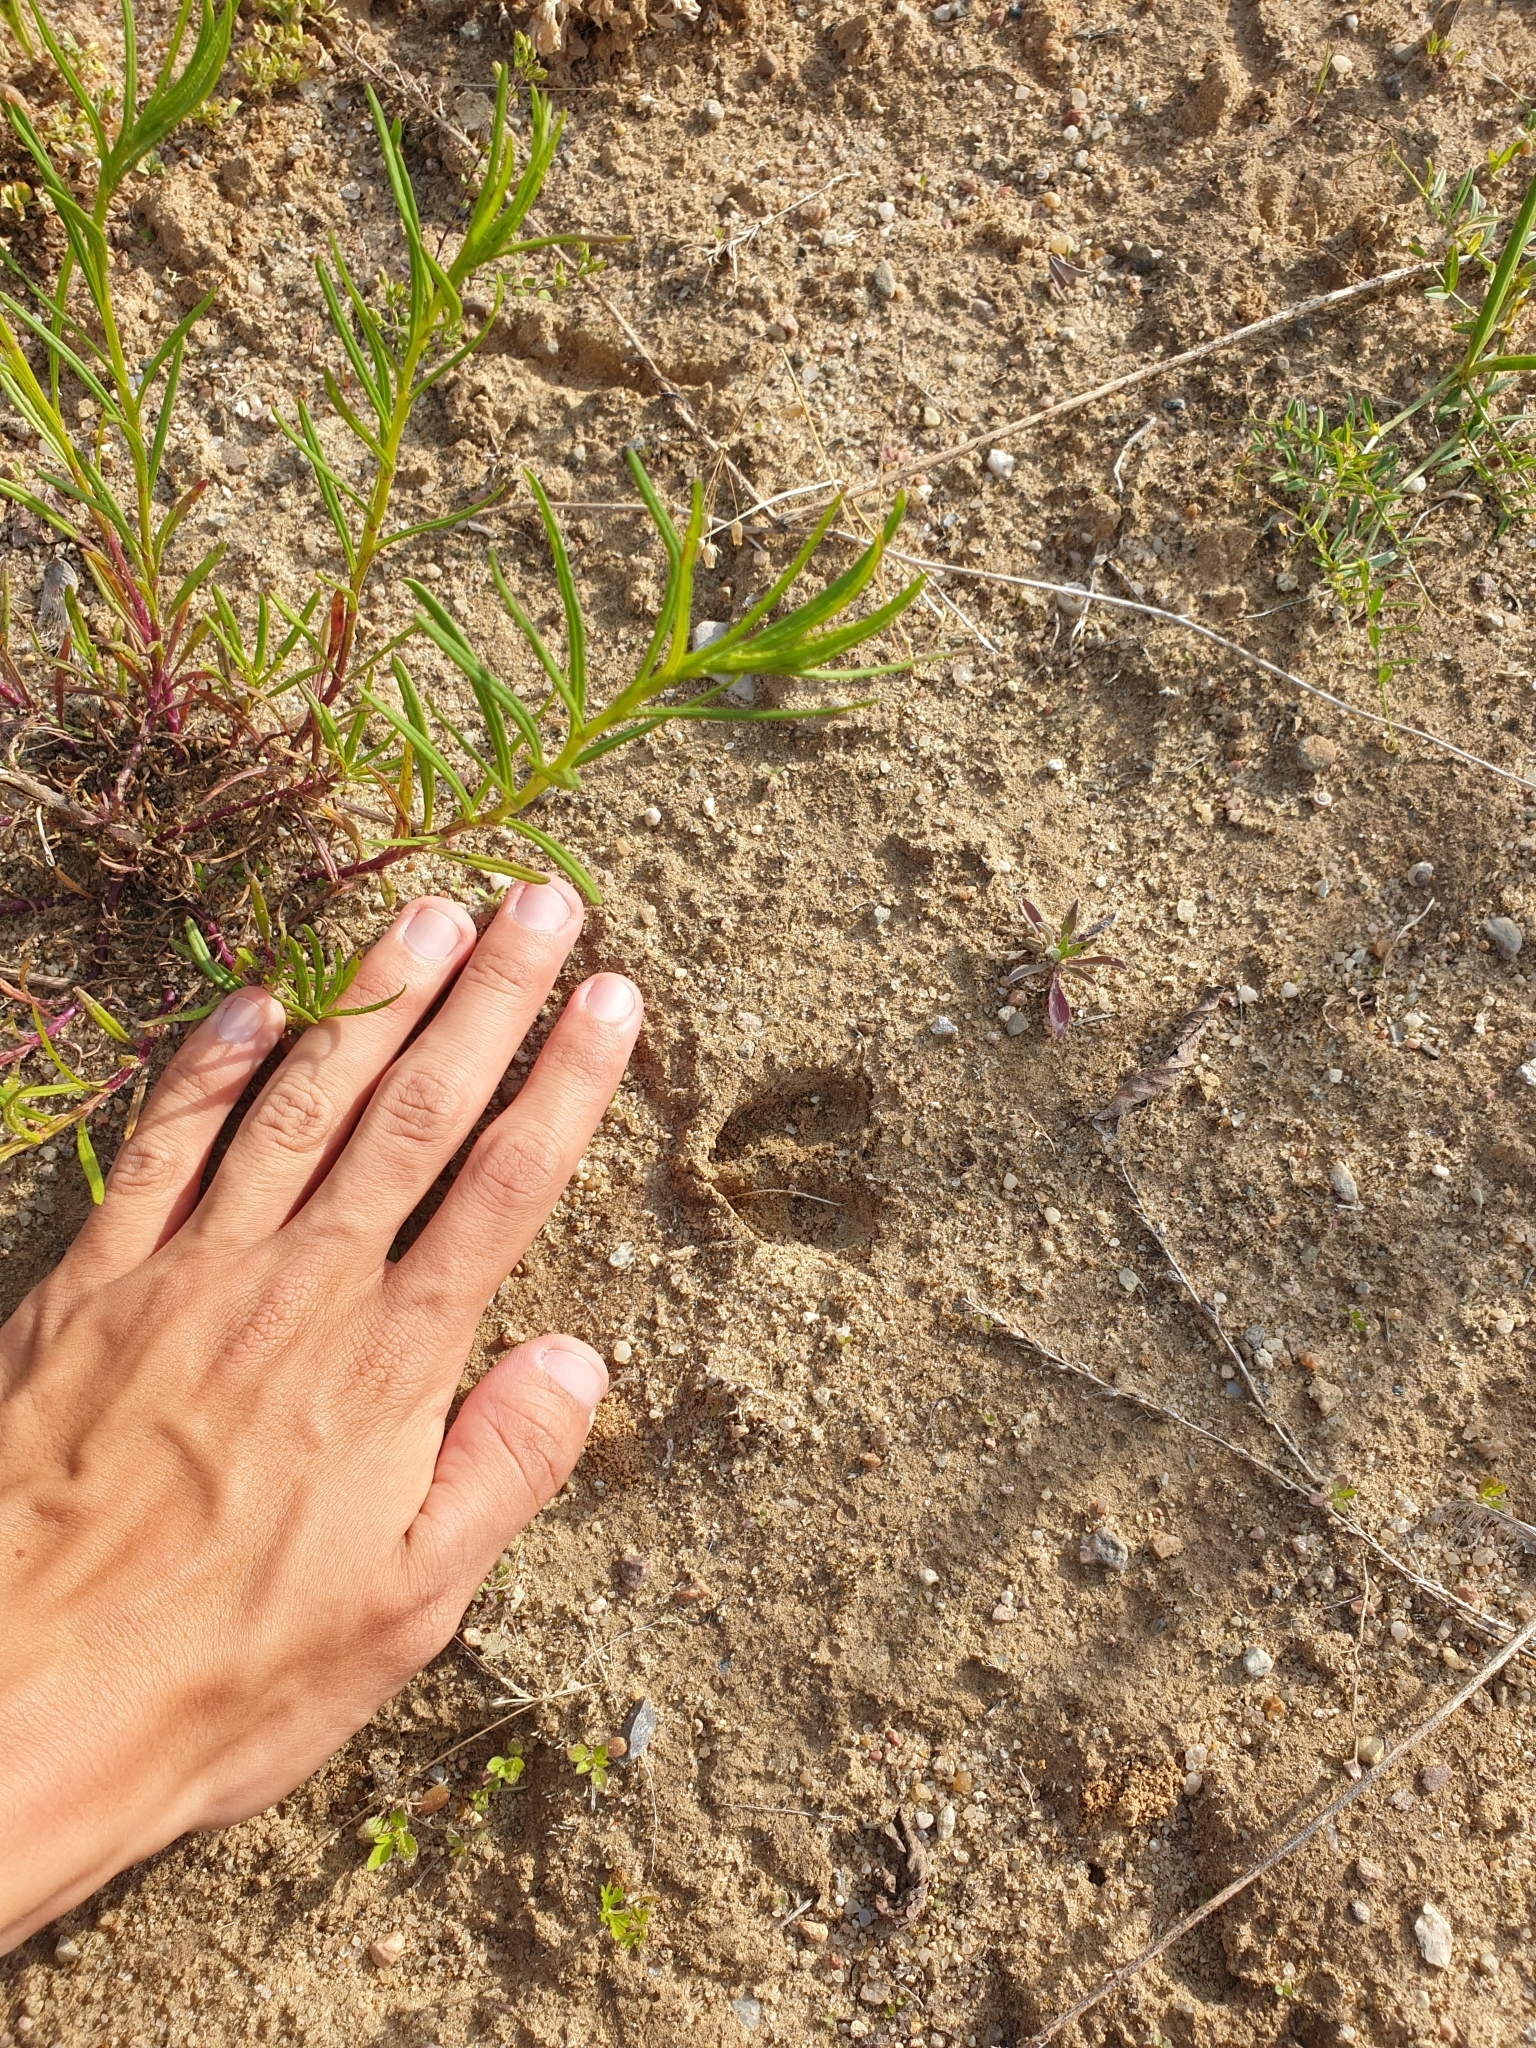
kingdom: Animalia
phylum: Chordata
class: Mammalia
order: Artiodactyla
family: Cervidae
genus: Capreolus
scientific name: Capreolus capreolus
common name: Western roe deer
